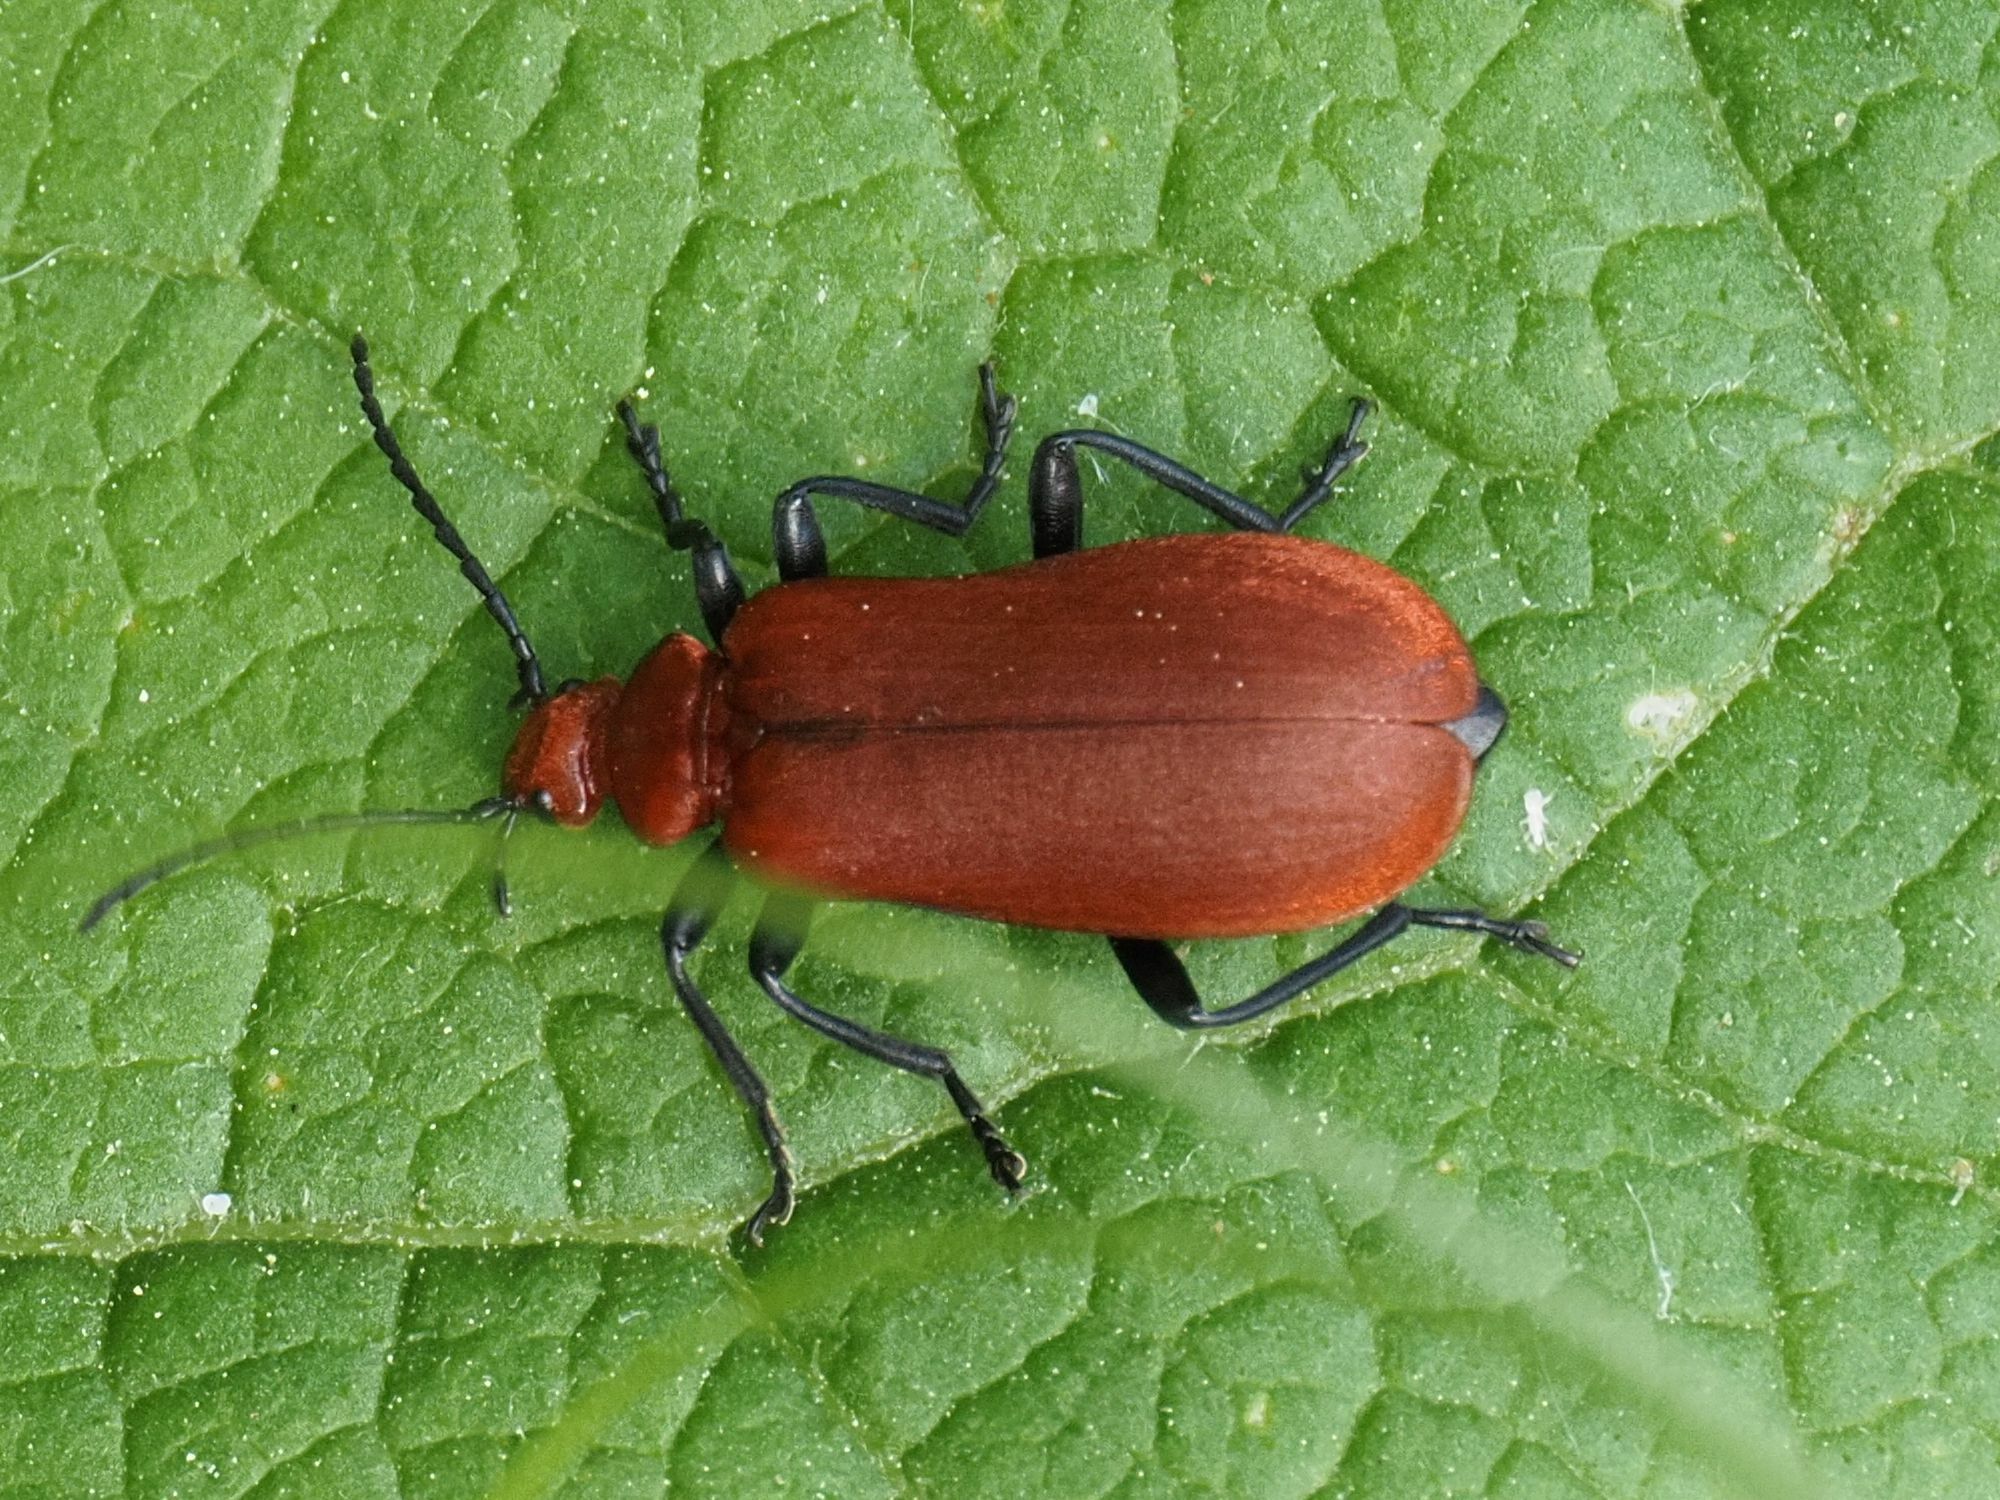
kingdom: Animalia
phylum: Arthropoda
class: Insecta
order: Coleoptera
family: Pyrochroidae
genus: Pyrochroa
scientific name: Pyrochroa serraticornis
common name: Red-headed cardinal beetle
